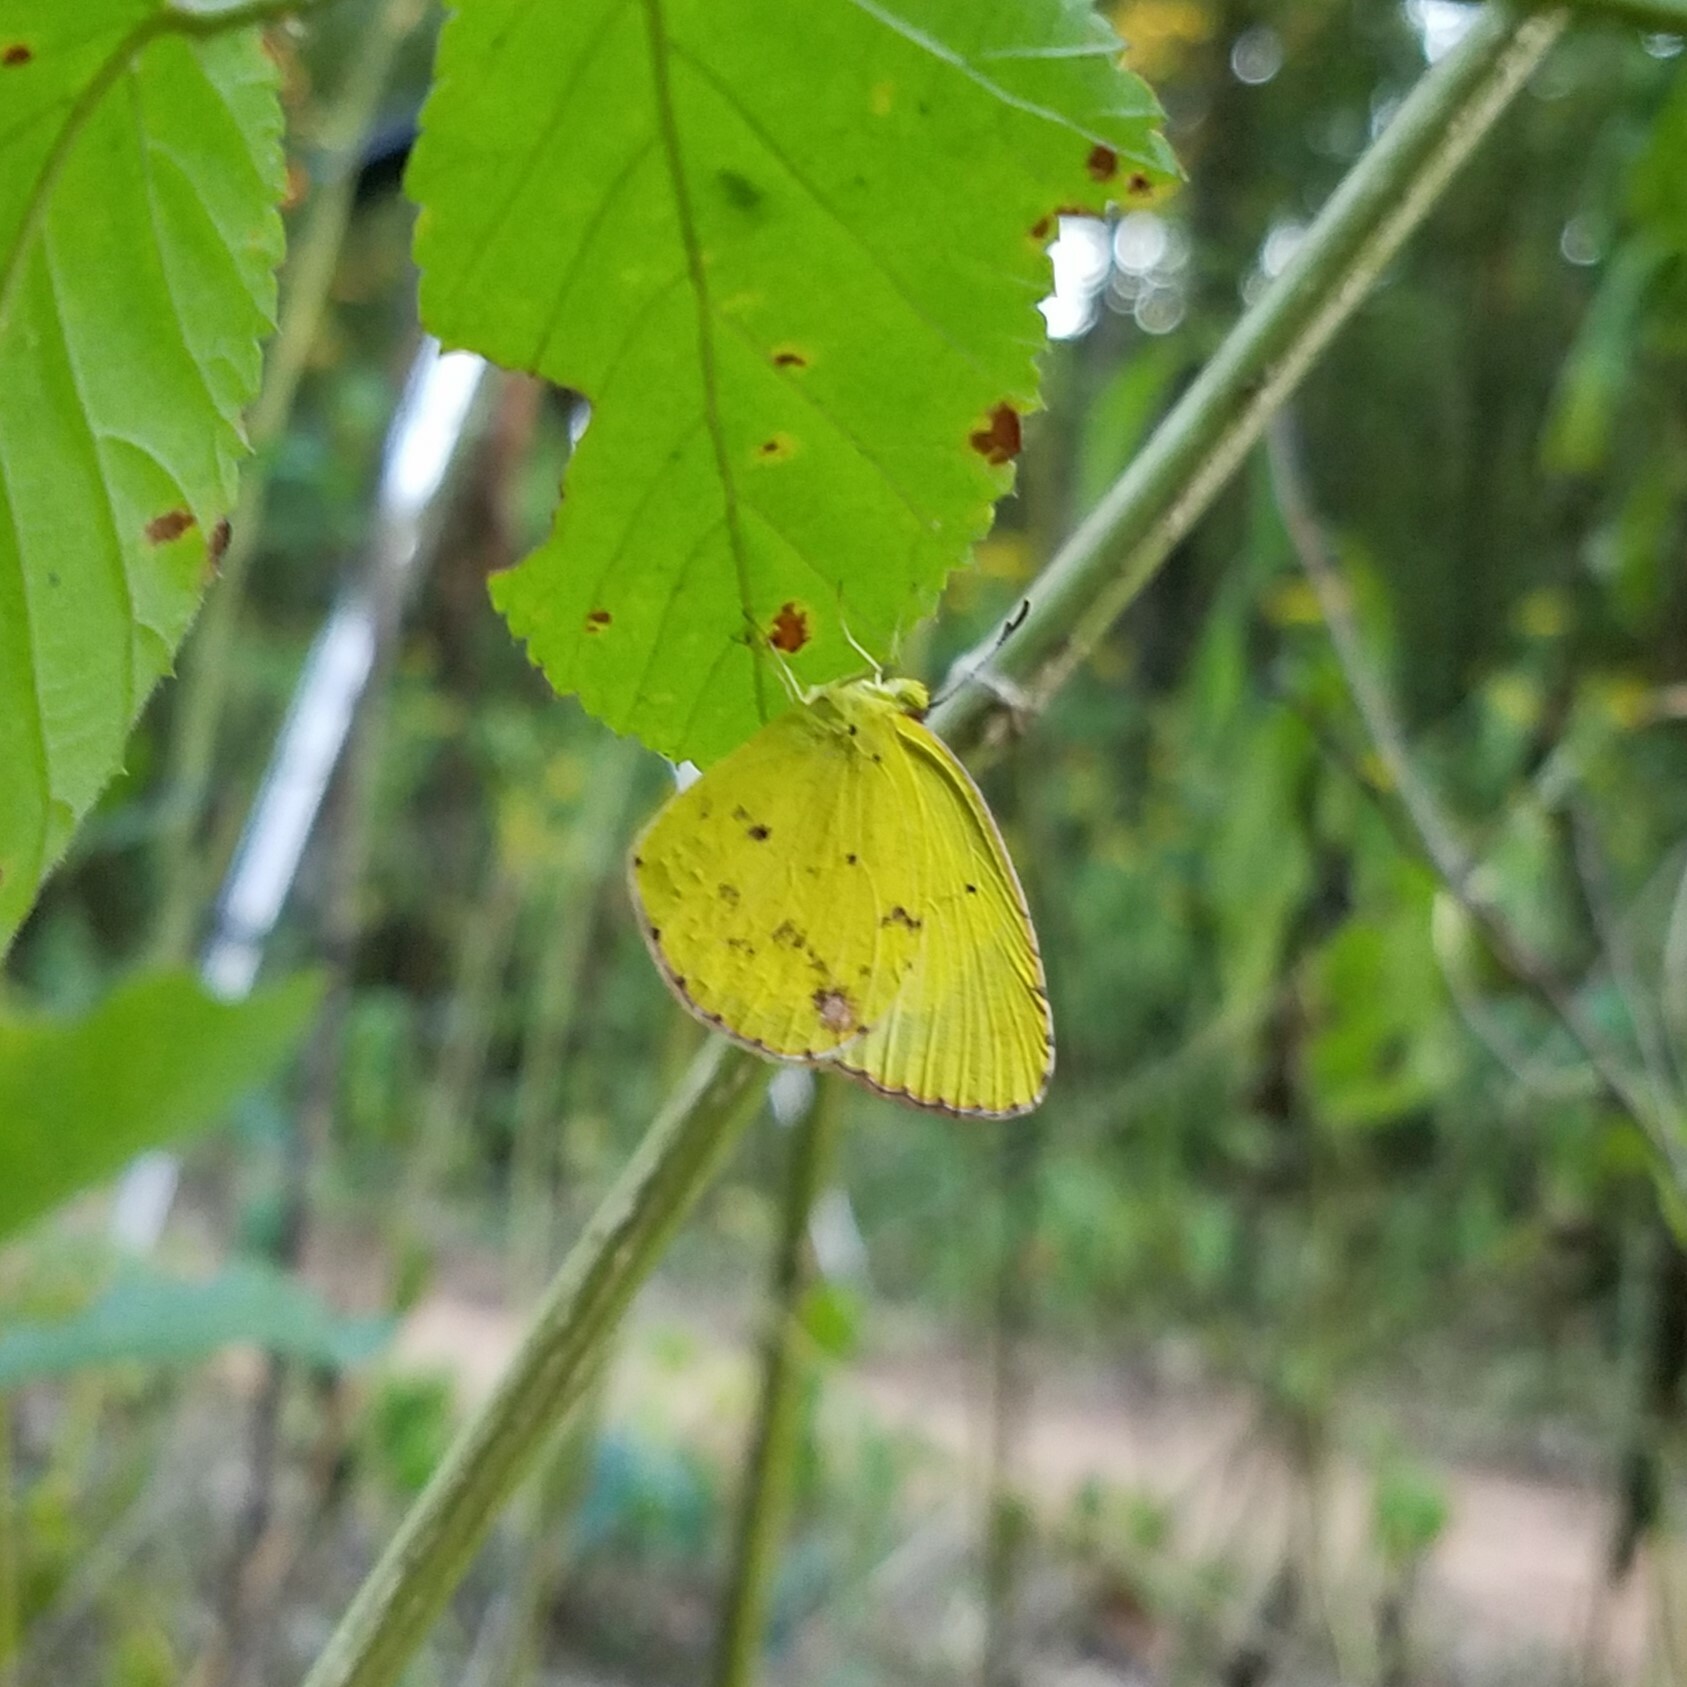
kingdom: Animalia
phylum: Arthropoda
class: Insecta
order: Lepidoptera
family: Pieridae
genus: Pyrisitia
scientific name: Pyrisitia lisa
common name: Little yellow
